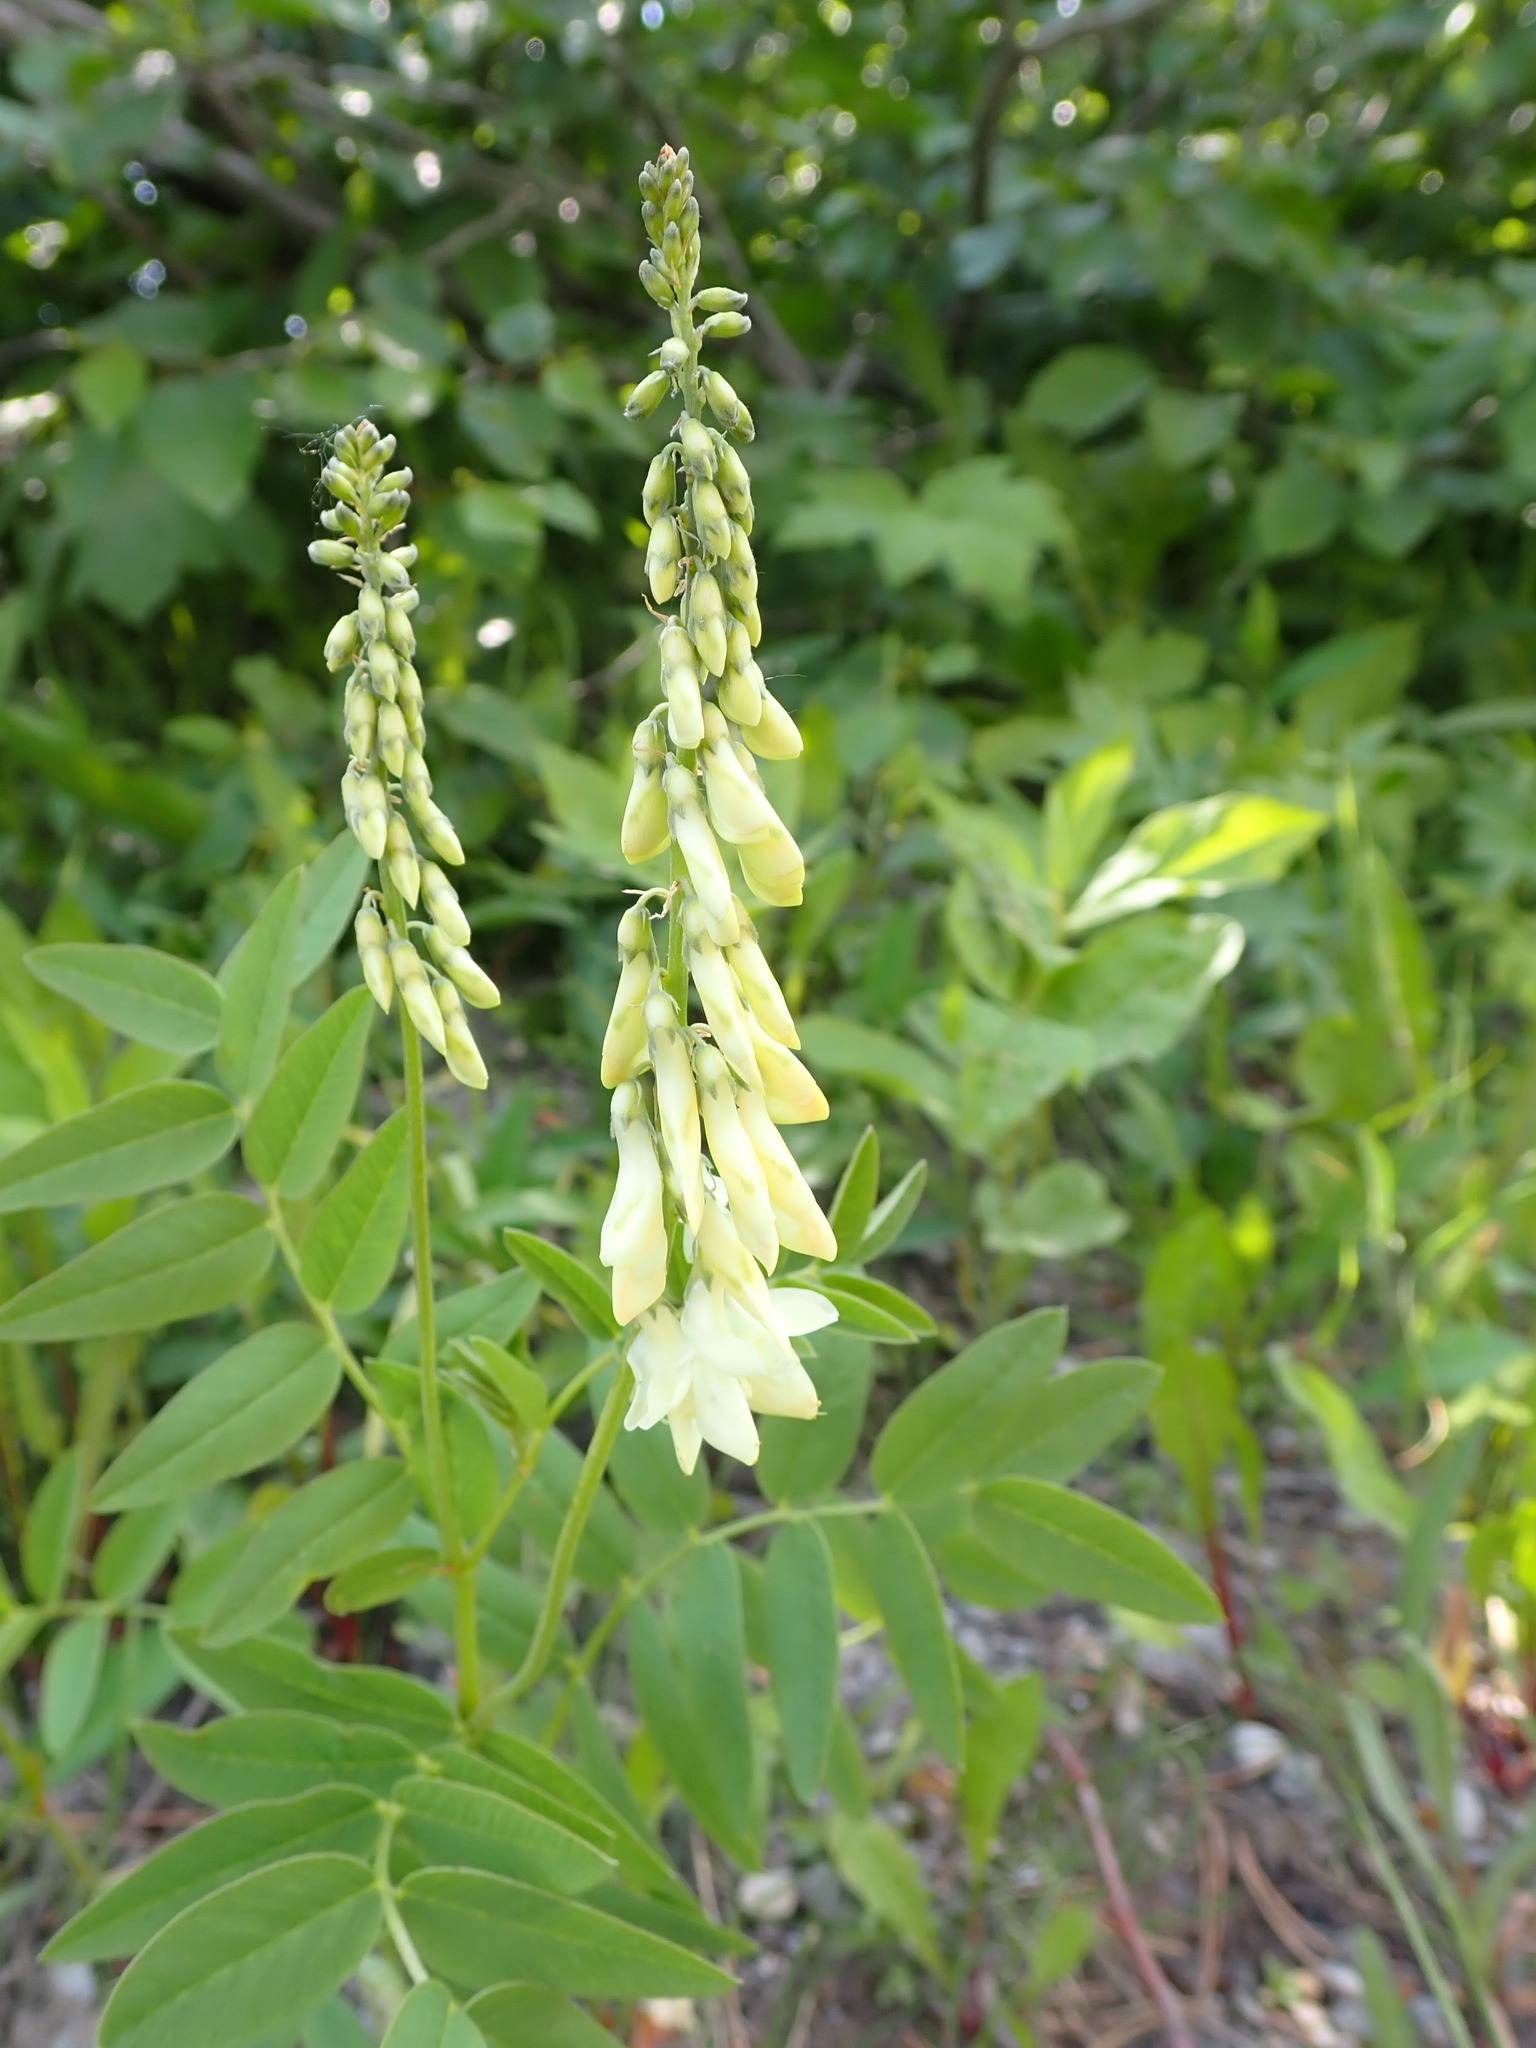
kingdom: Plantae
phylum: Tracheophyta
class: Magnoliopsida
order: Fabales
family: Fabaceae
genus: Hedysarum
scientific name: Hedysarum sulphurescens
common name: Sulphur hedysarum
